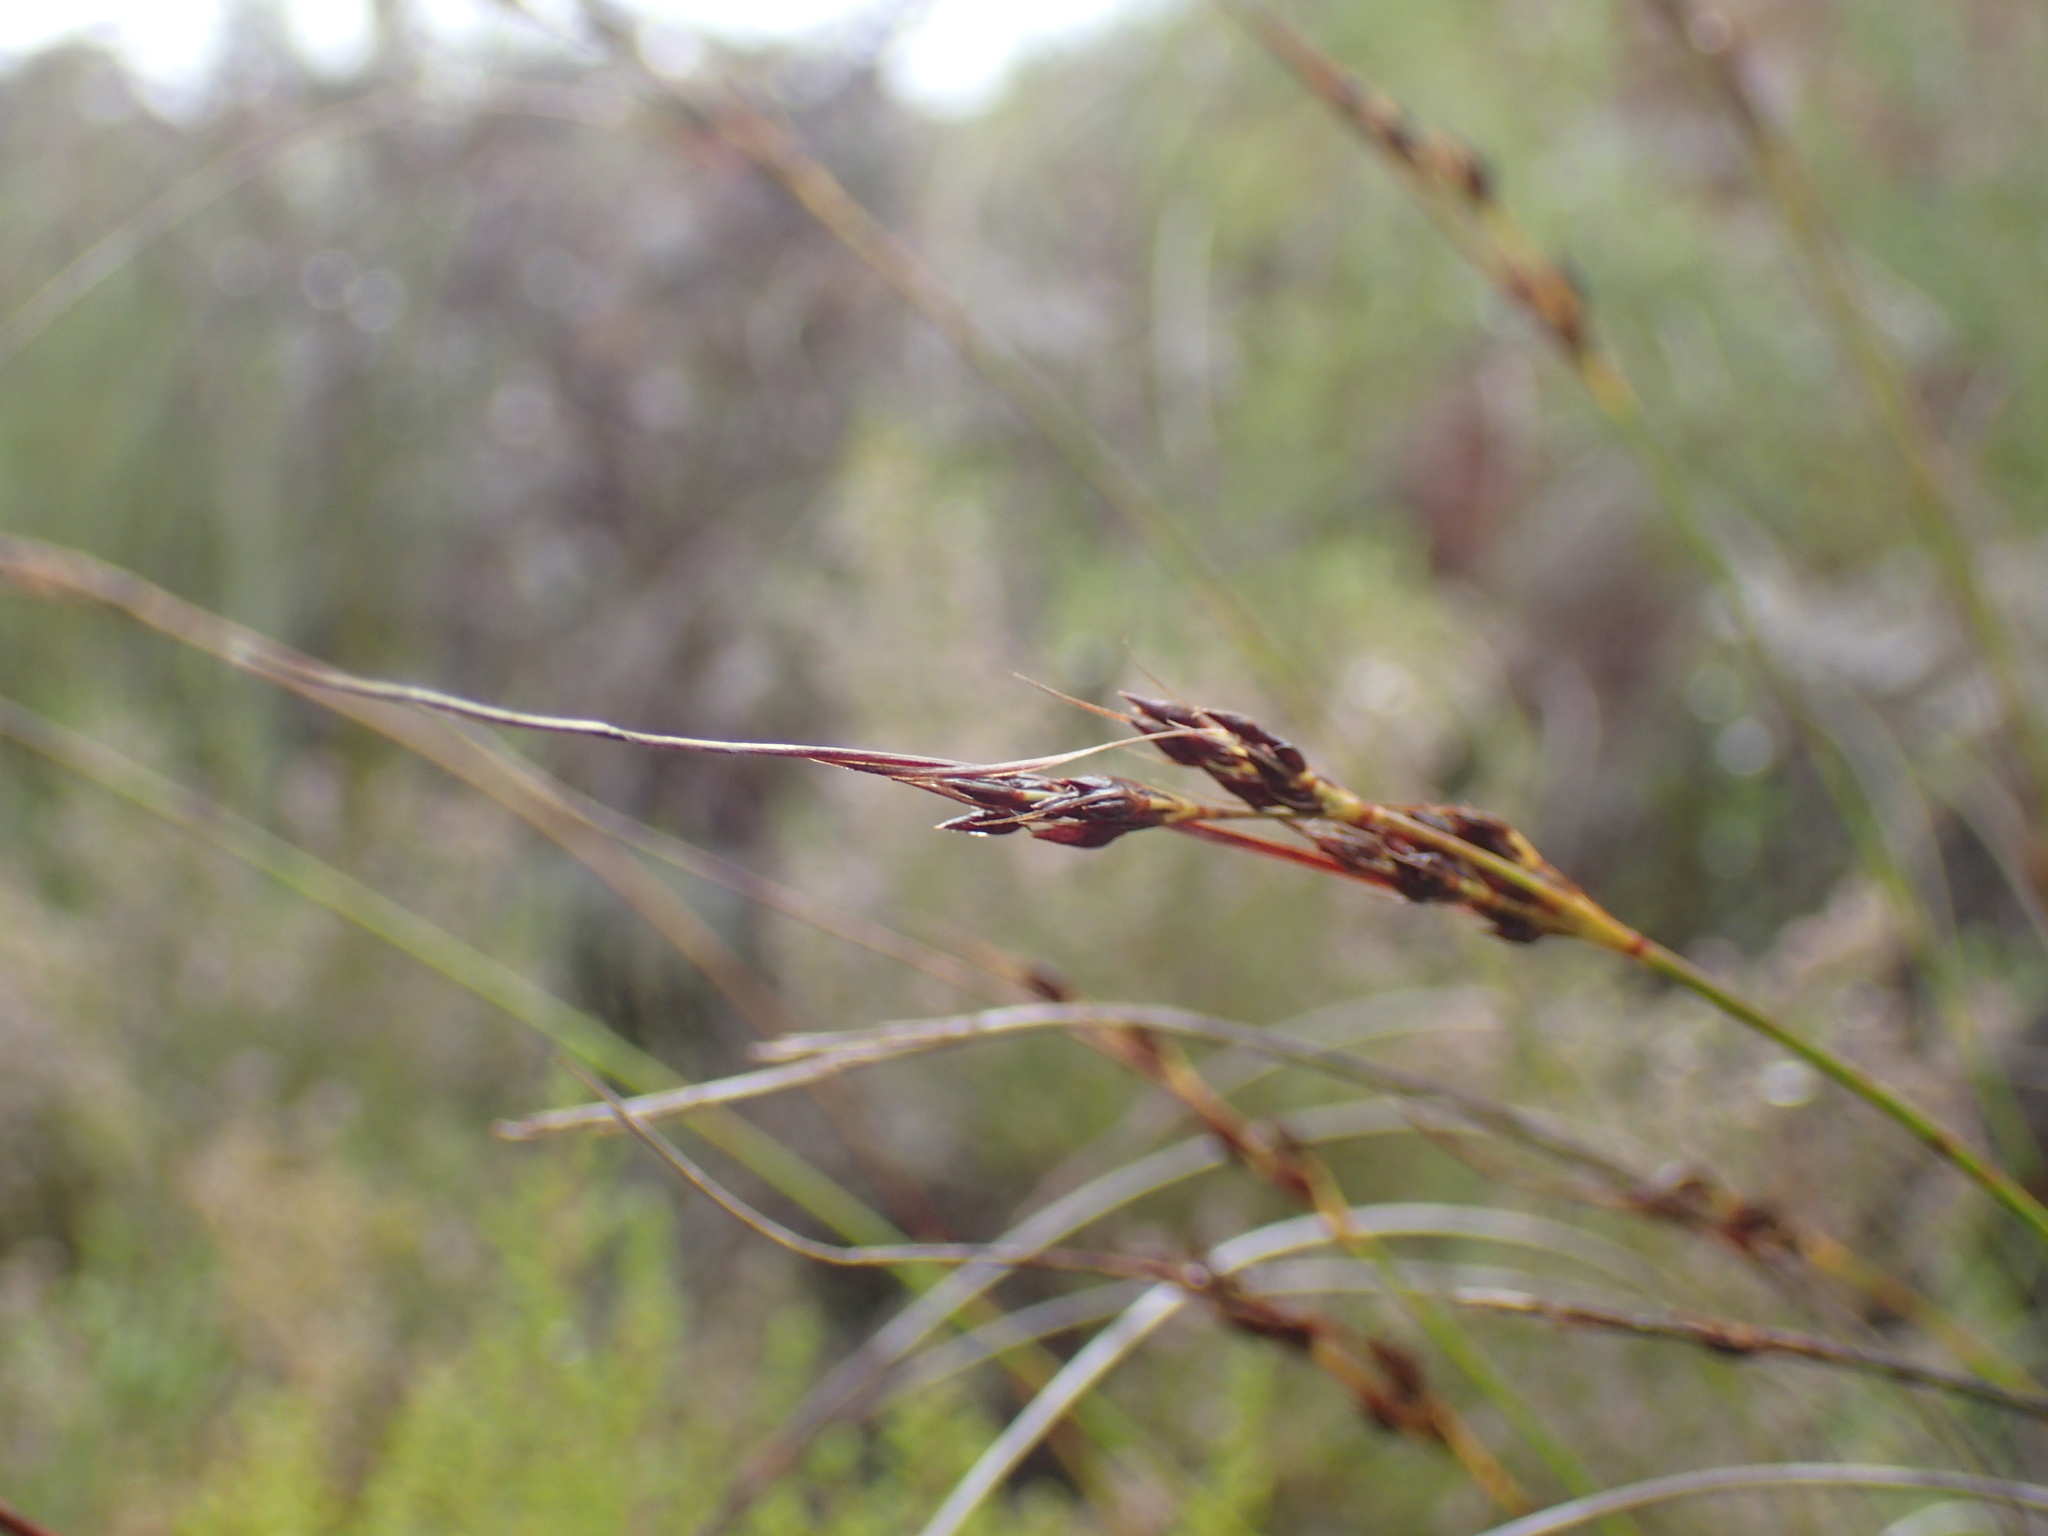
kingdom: Plantae
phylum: Tracheophyta
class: Liliopsida
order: Poales
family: Cyperaceae
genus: Schoenus
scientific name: Schoenus cuspidatus
